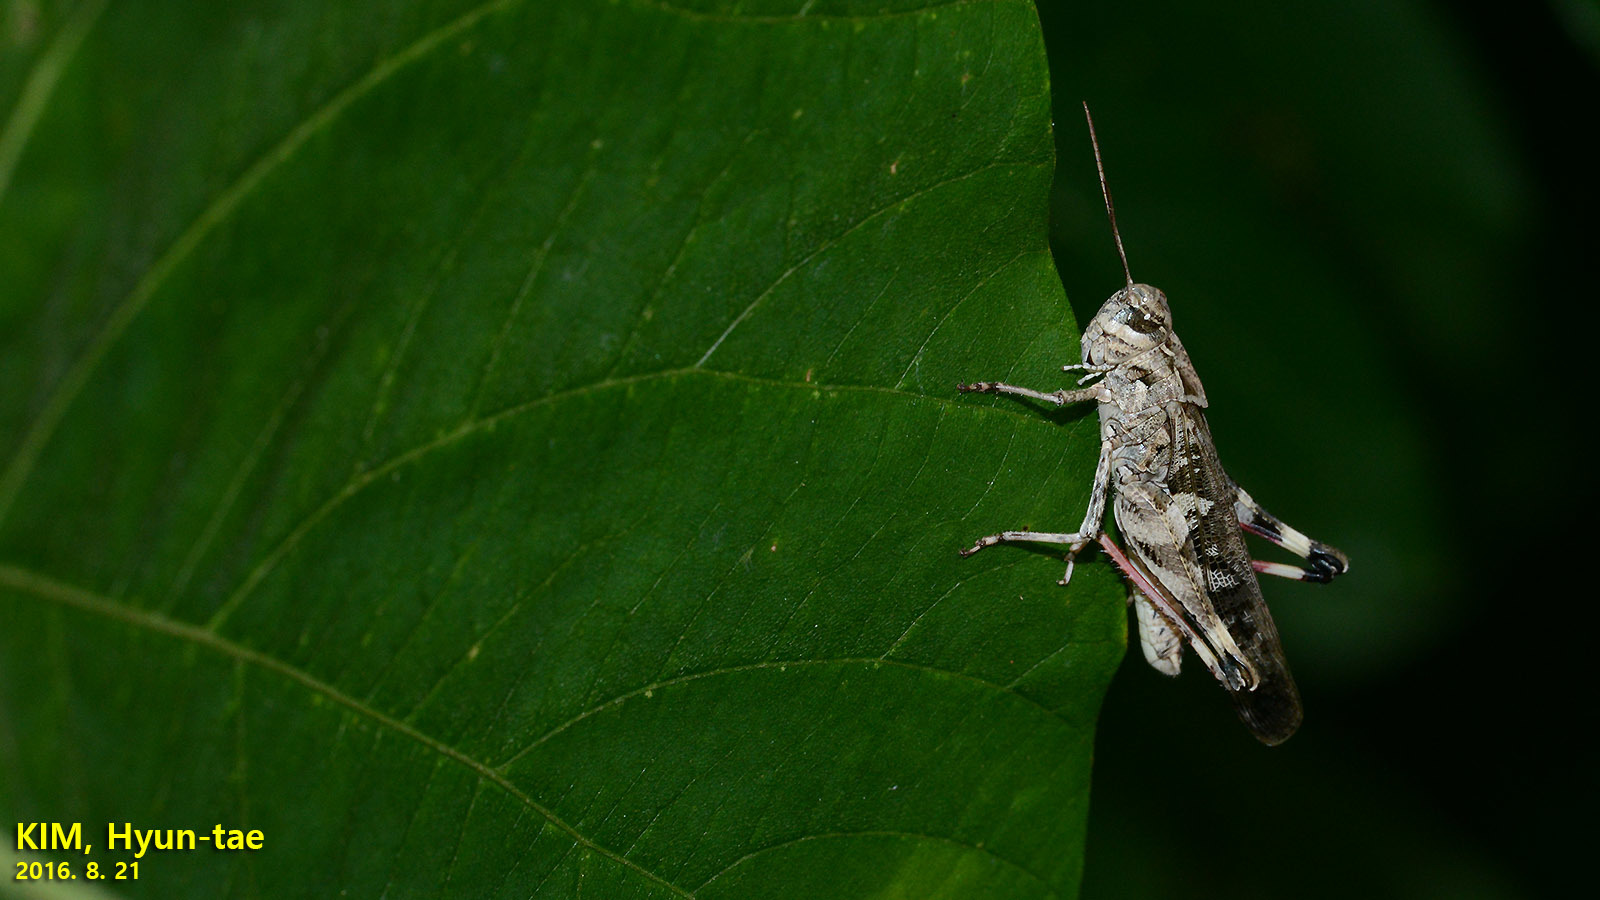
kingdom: Animalia
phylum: Arthropoda
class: Insecta
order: Orthoptera
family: Acrididae
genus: Oedaleus
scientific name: Oedaleus infernalis
